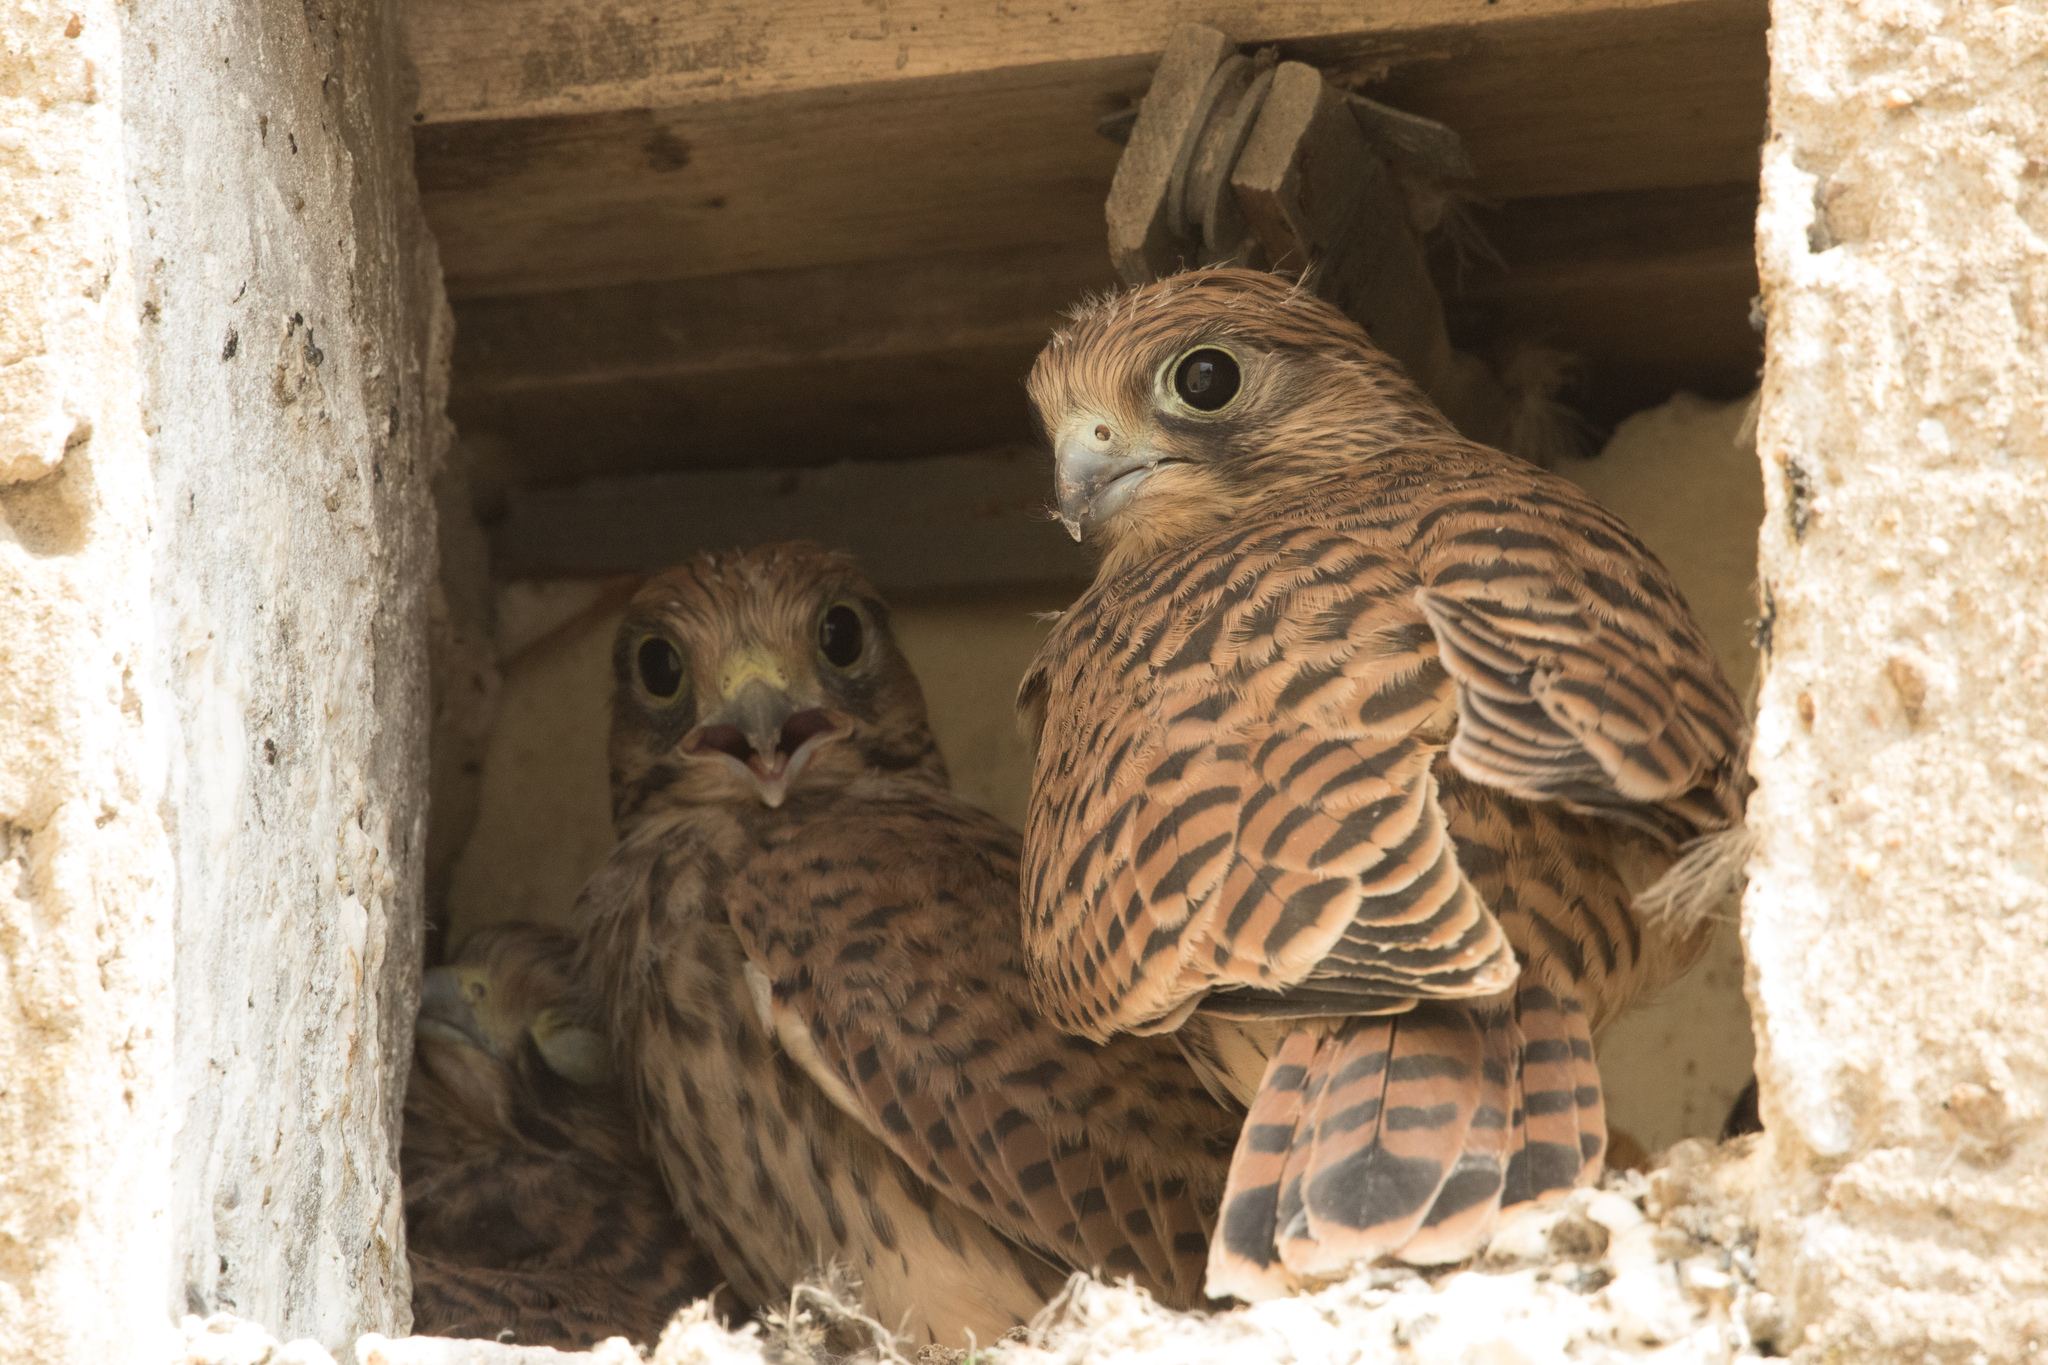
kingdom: Animalia
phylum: Chordata
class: Aves
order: Falconiformes
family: Falconidae
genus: Falco
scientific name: Falco tinnunculus
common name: Common kestrel
